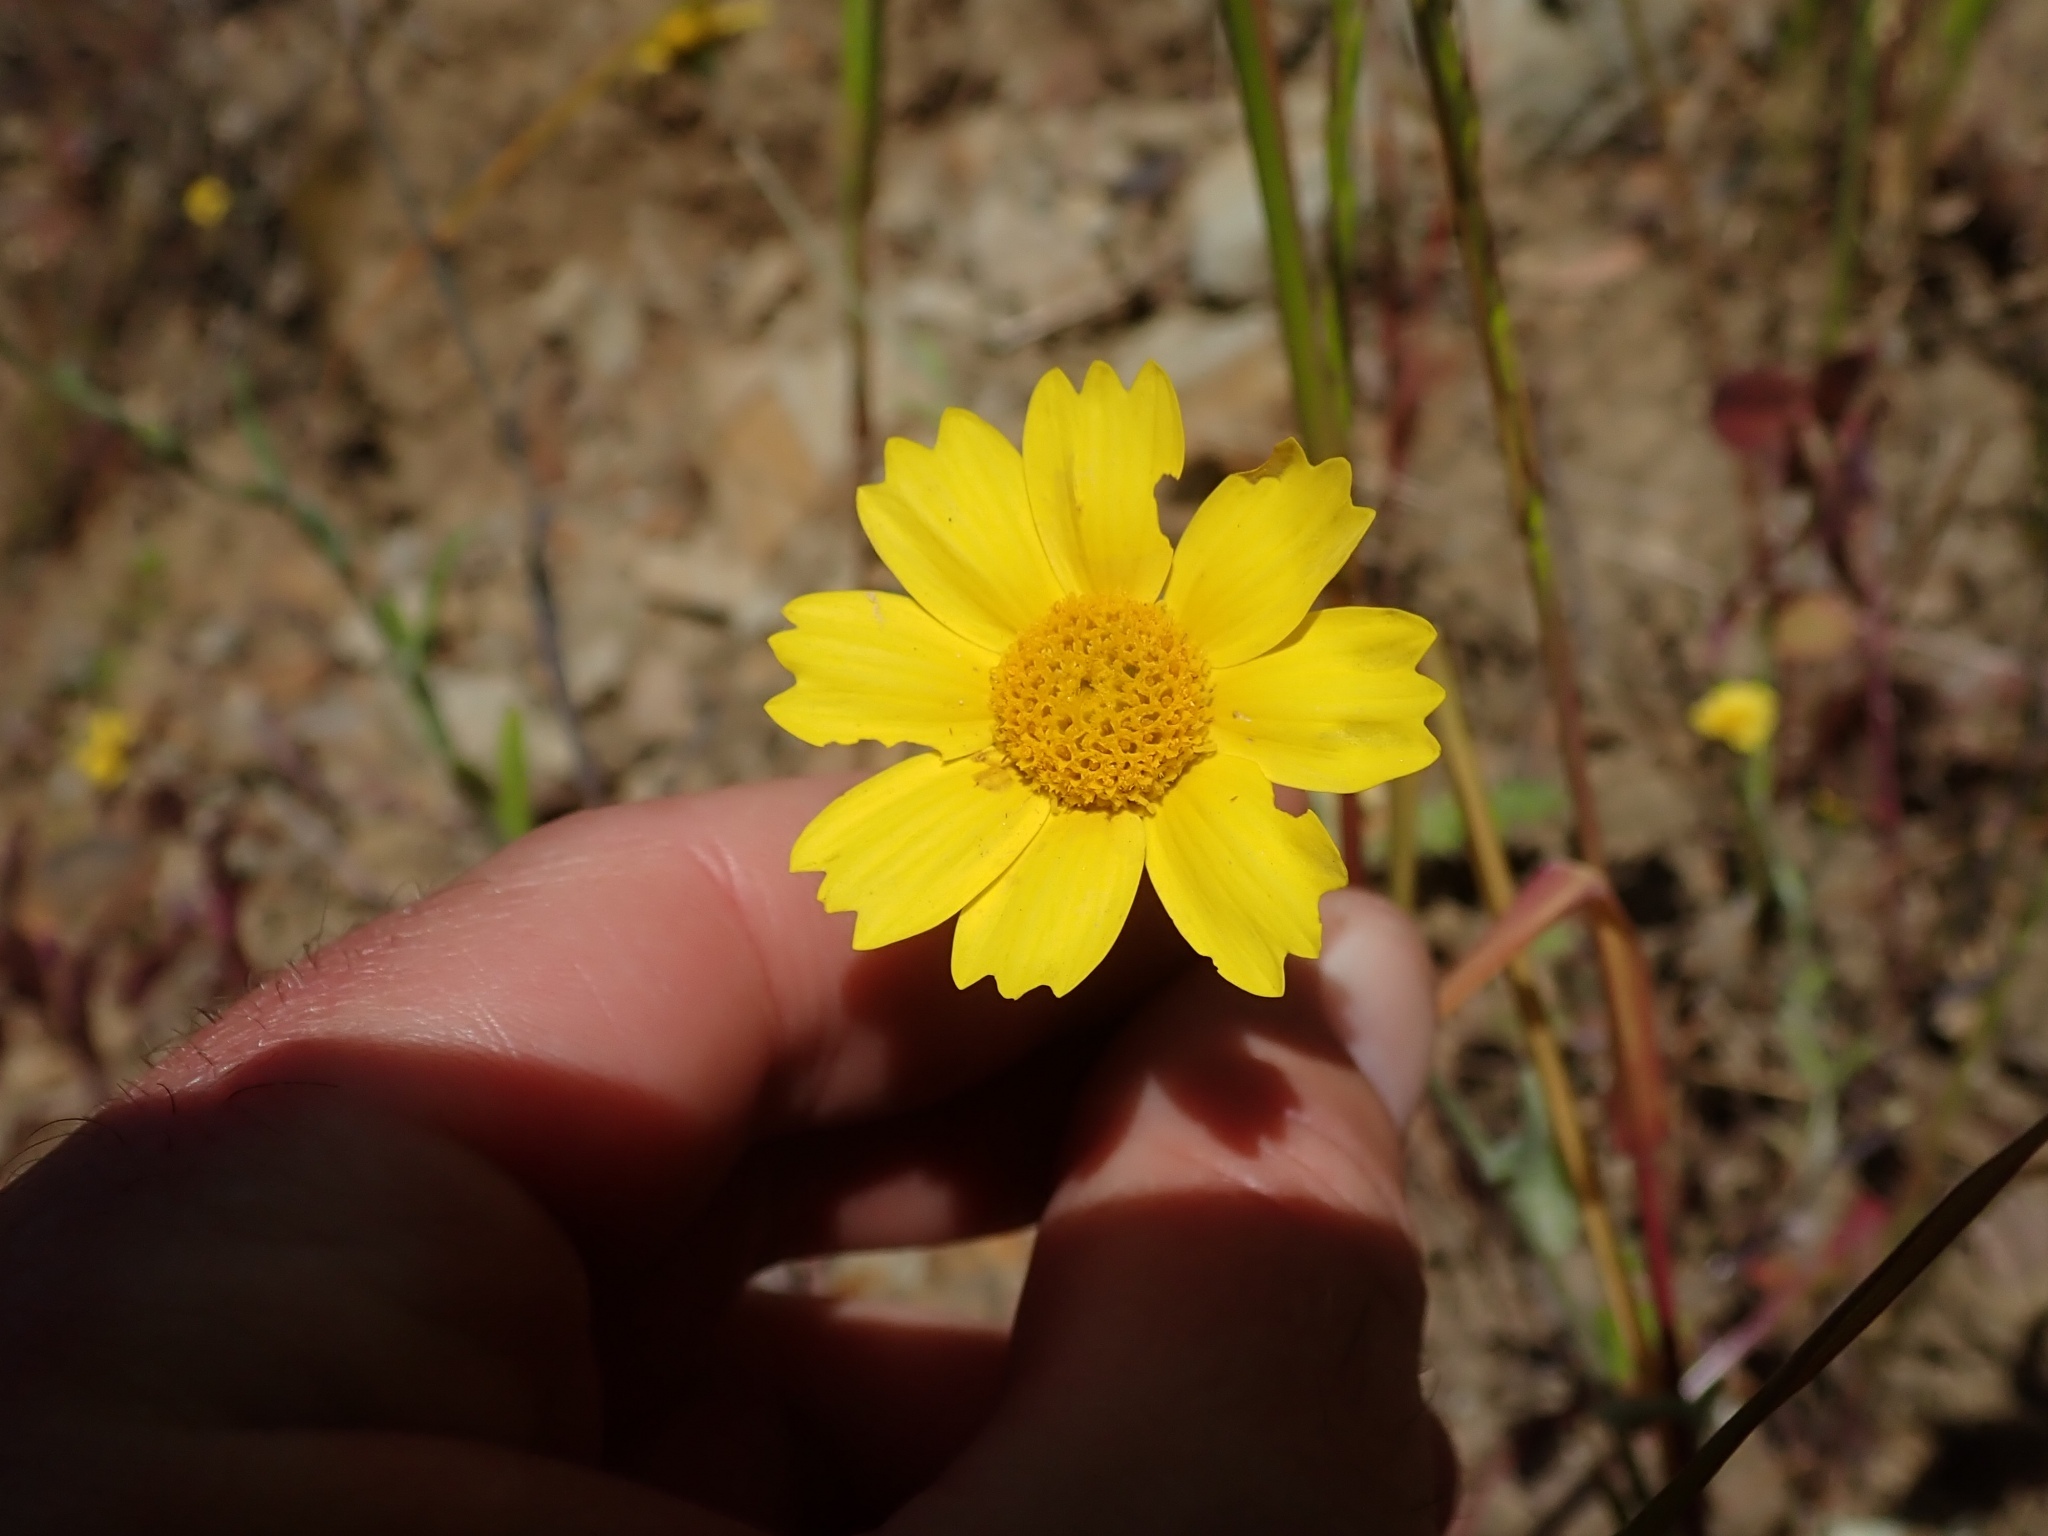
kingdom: Plantae
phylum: Tracheophyta
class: Magnoliopsida
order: Asterales
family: Asteraceae
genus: Monolopia
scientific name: Monolopia major
